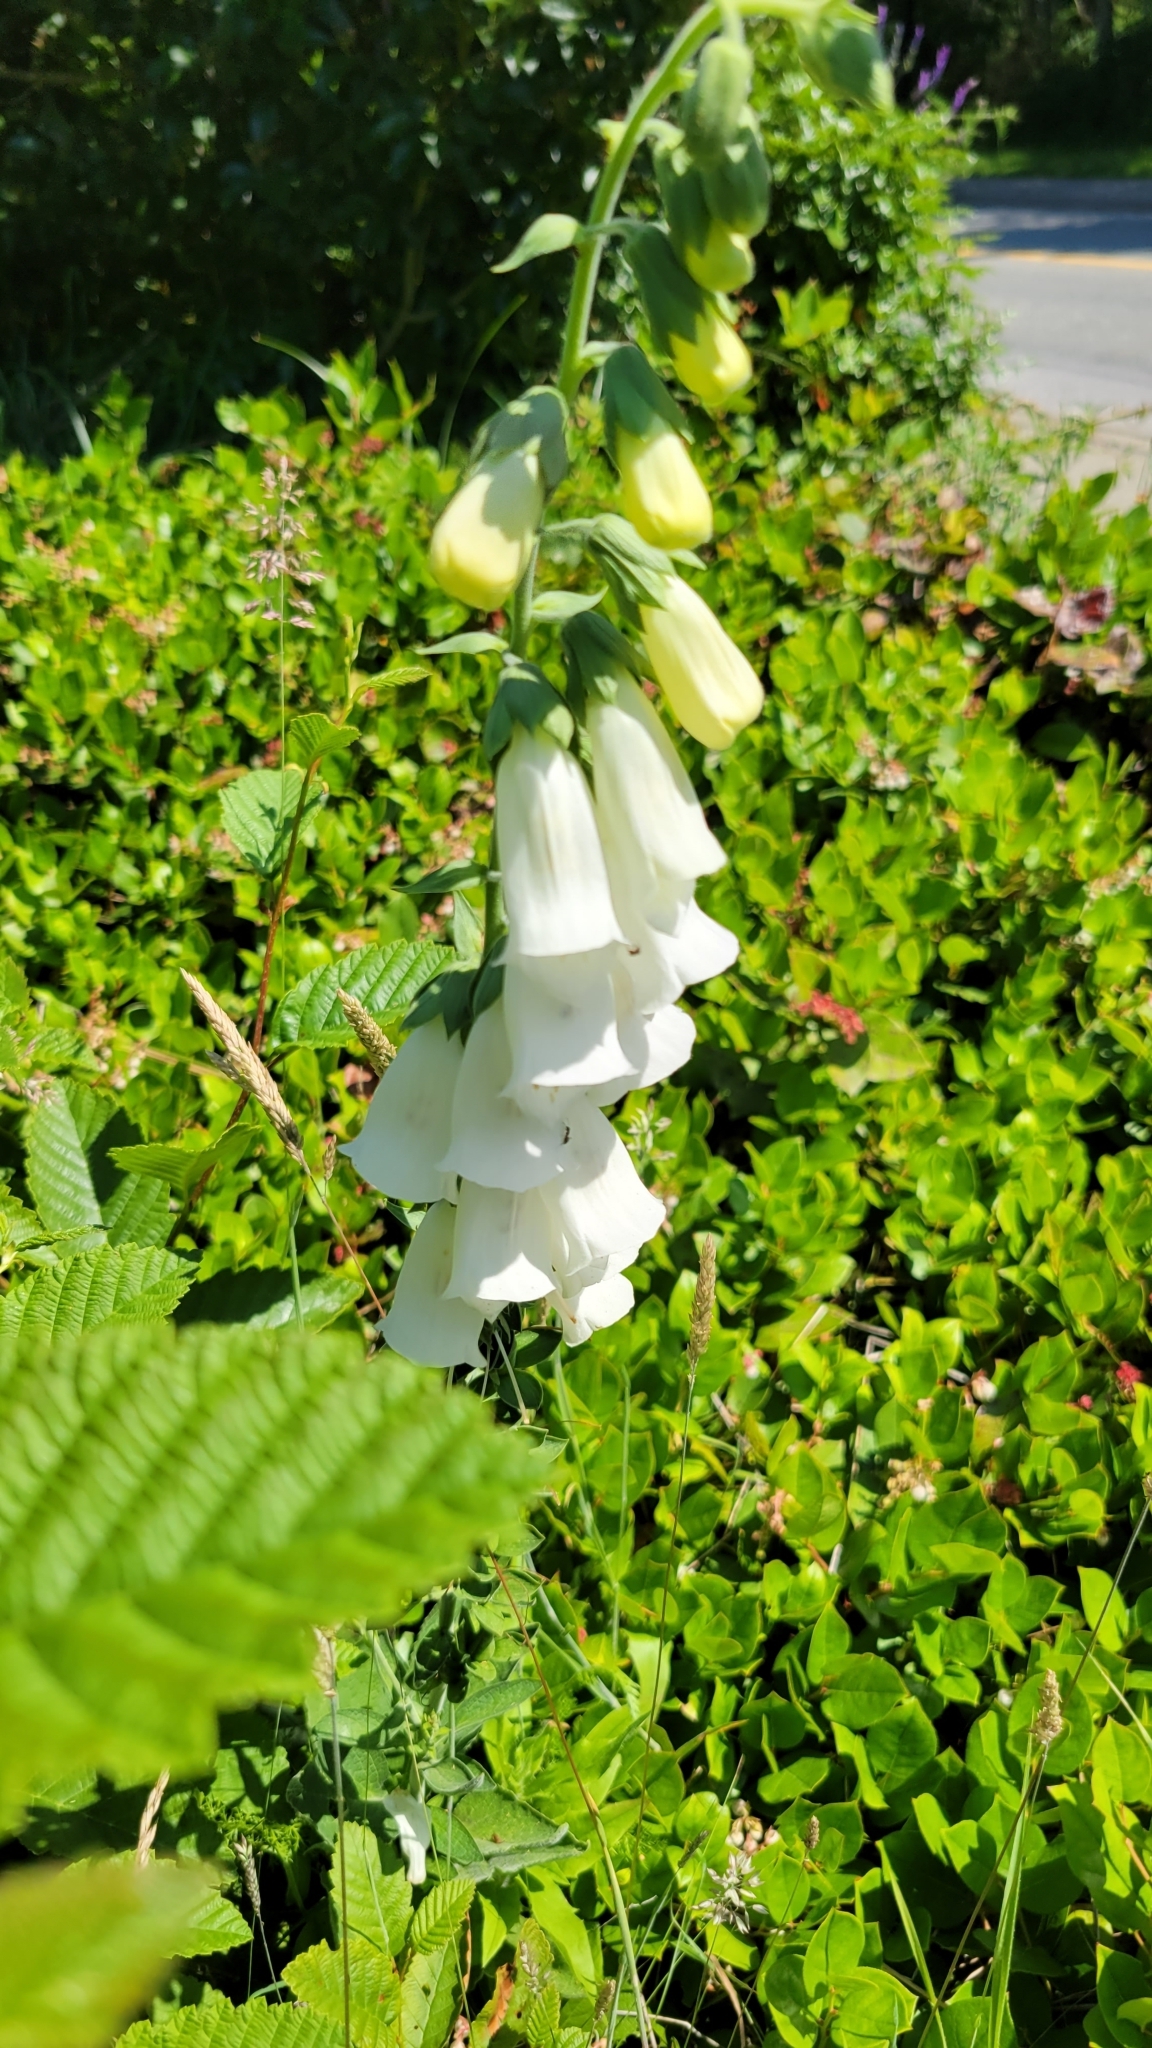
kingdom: Plantae
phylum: Tracheophyta
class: Magnoliopsida
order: Lamiales
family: Plantaginaceae
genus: Digitalis
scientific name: Digitalis purpurea
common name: Foxglove
